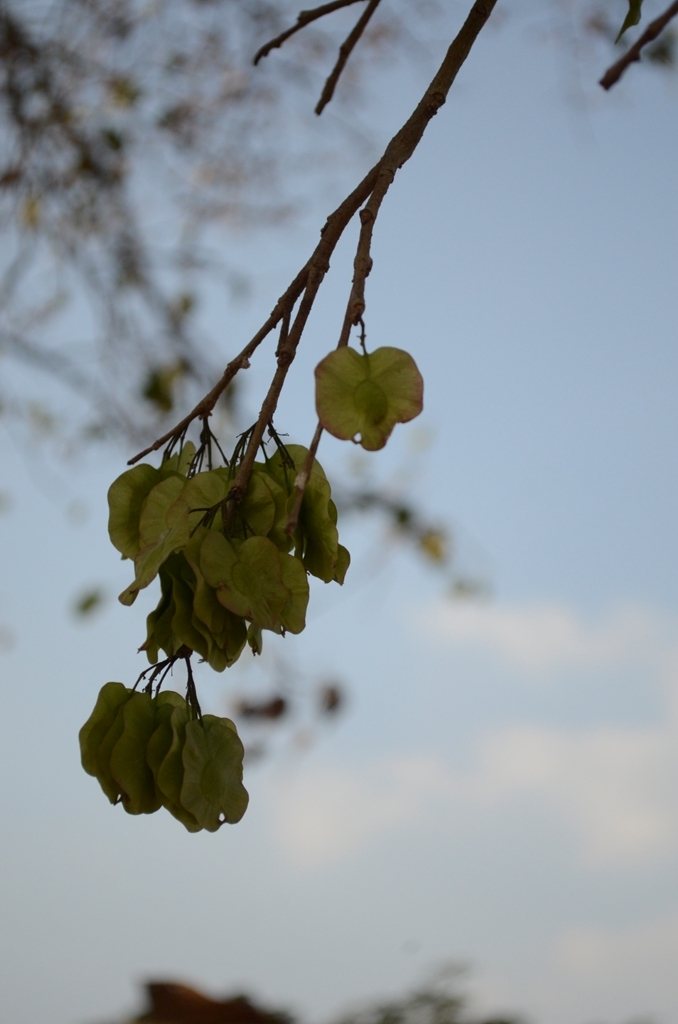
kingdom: Plantae
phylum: Tracheophyta
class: Magnoliopsida
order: Rosales
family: Ulmaceae
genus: Holoptelea
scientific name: Holoptelea integrifolia
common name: Indian-elm
